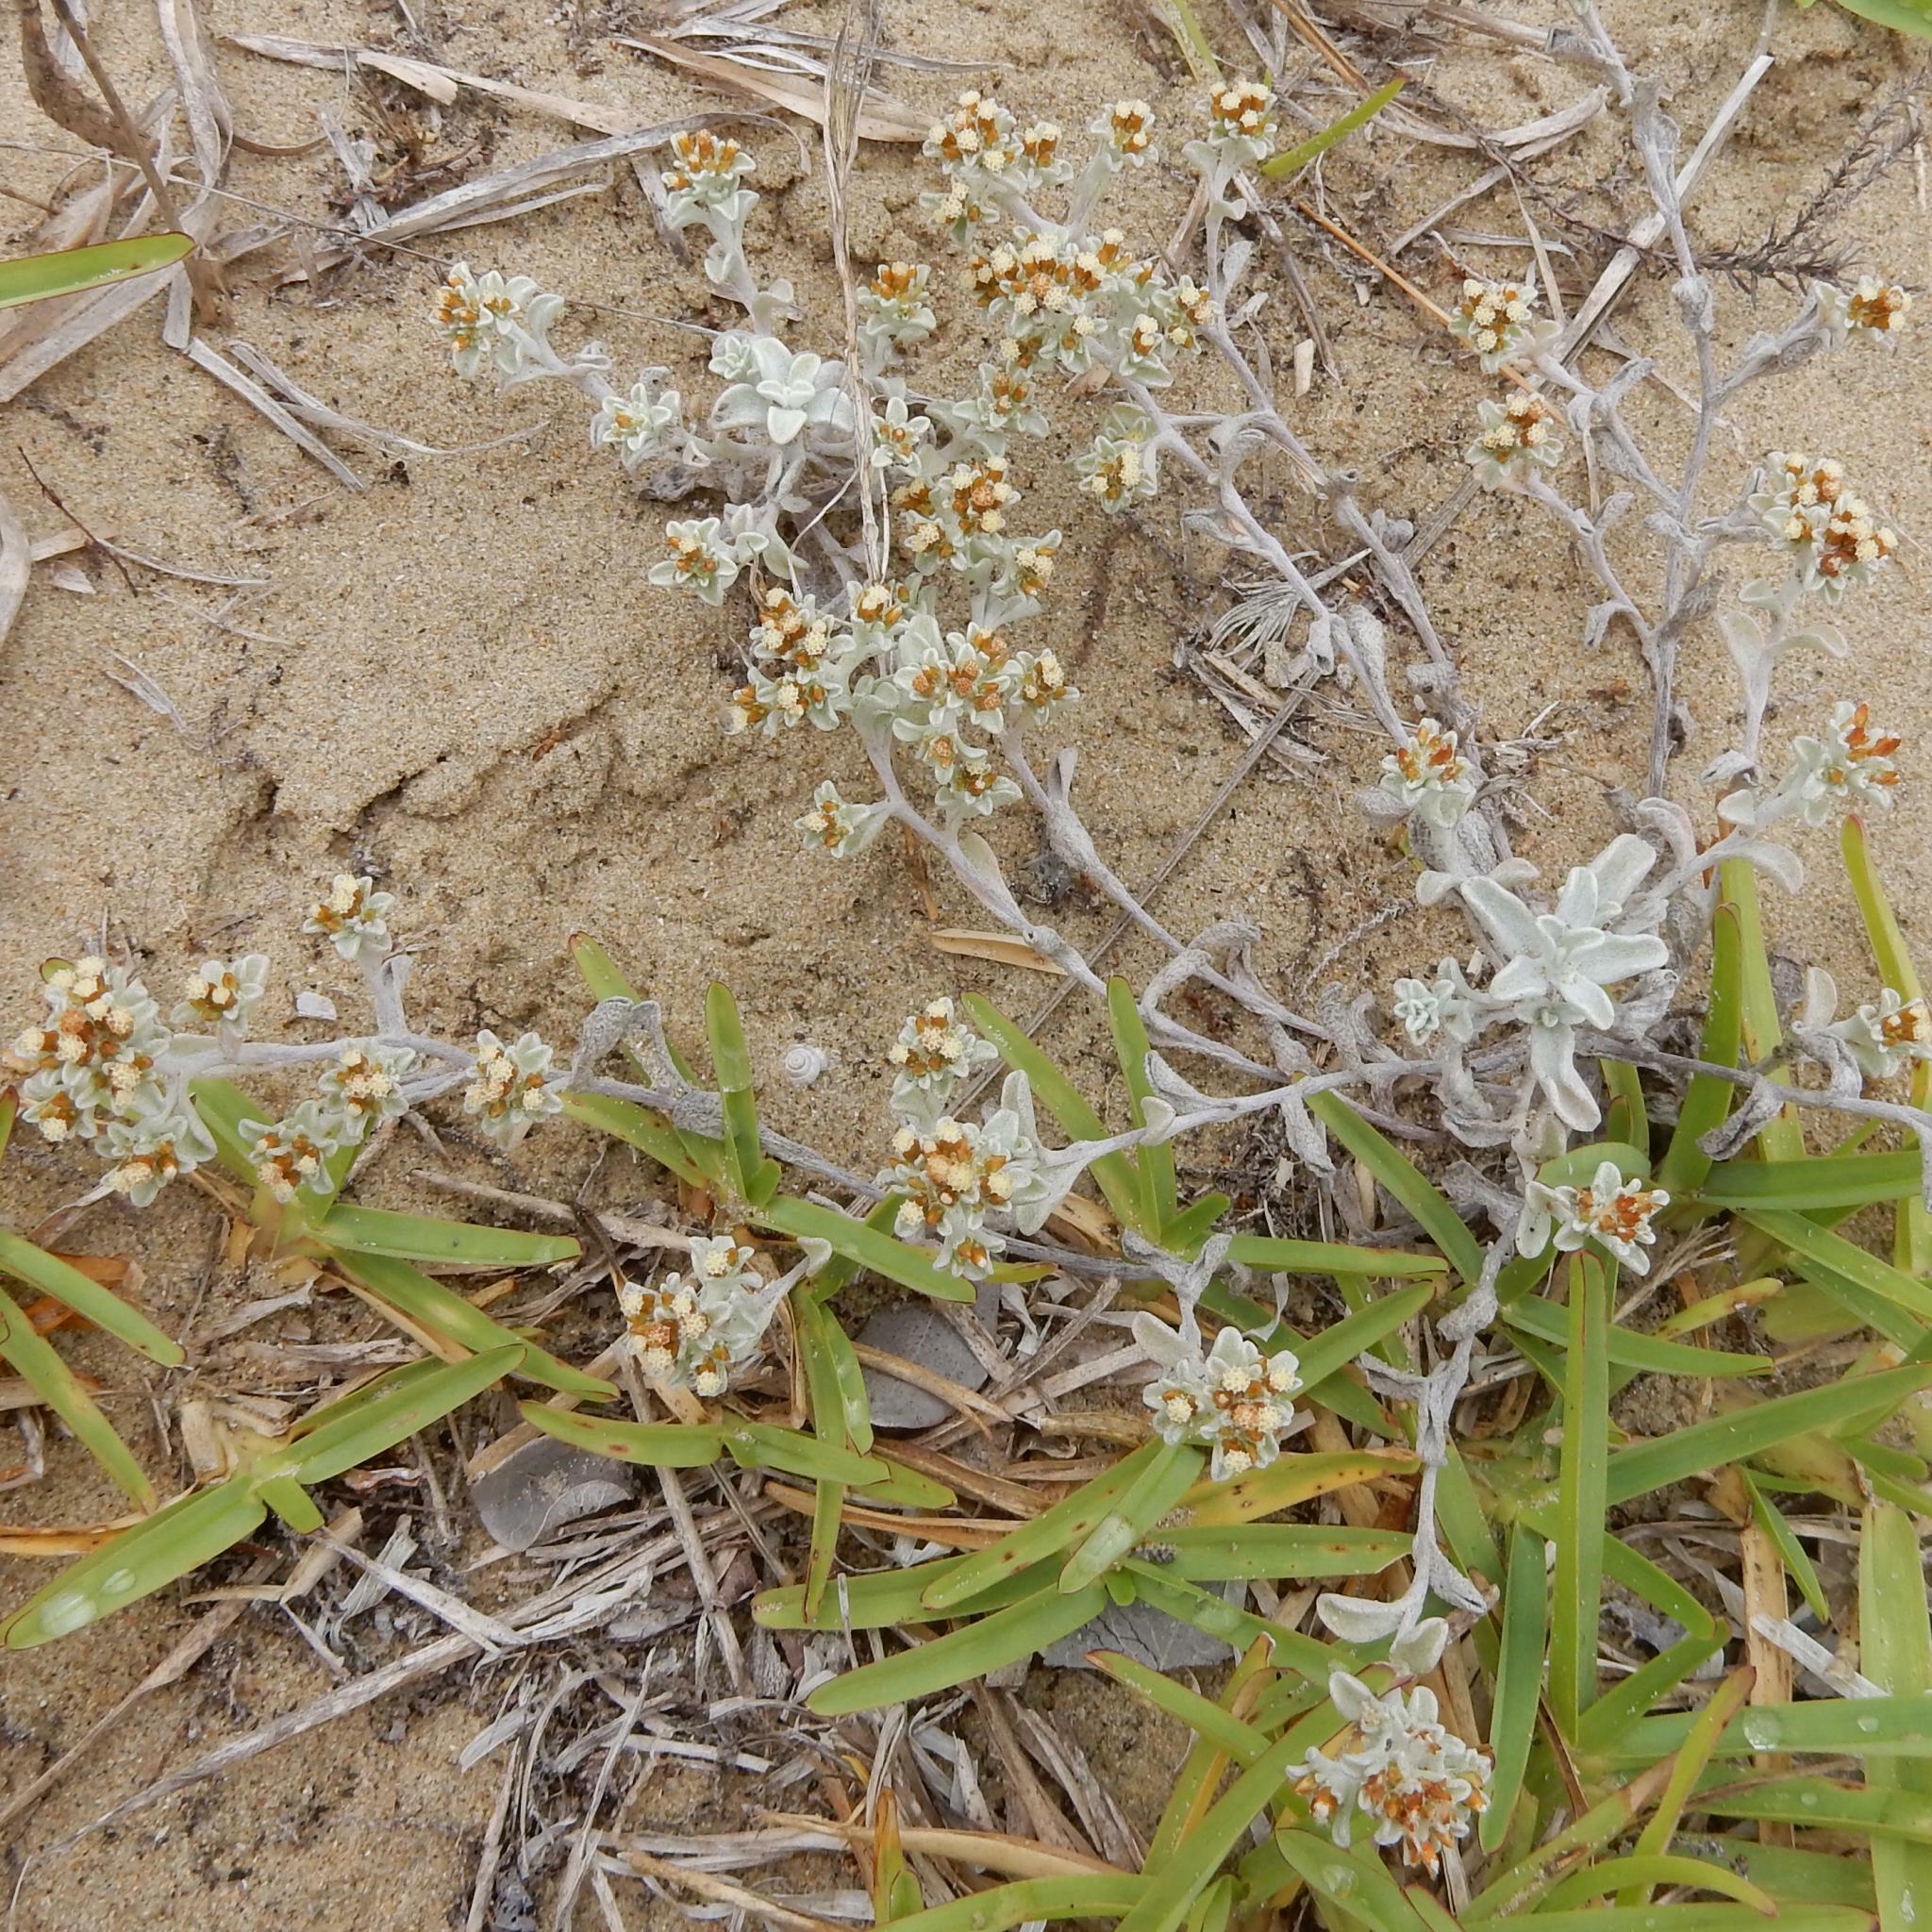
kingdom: Plantae
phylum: Tracheophyta
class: Magnoliopsida
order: Asterales
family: Asteraceae
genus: Helichrysum
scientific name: Helichrysum litorale
